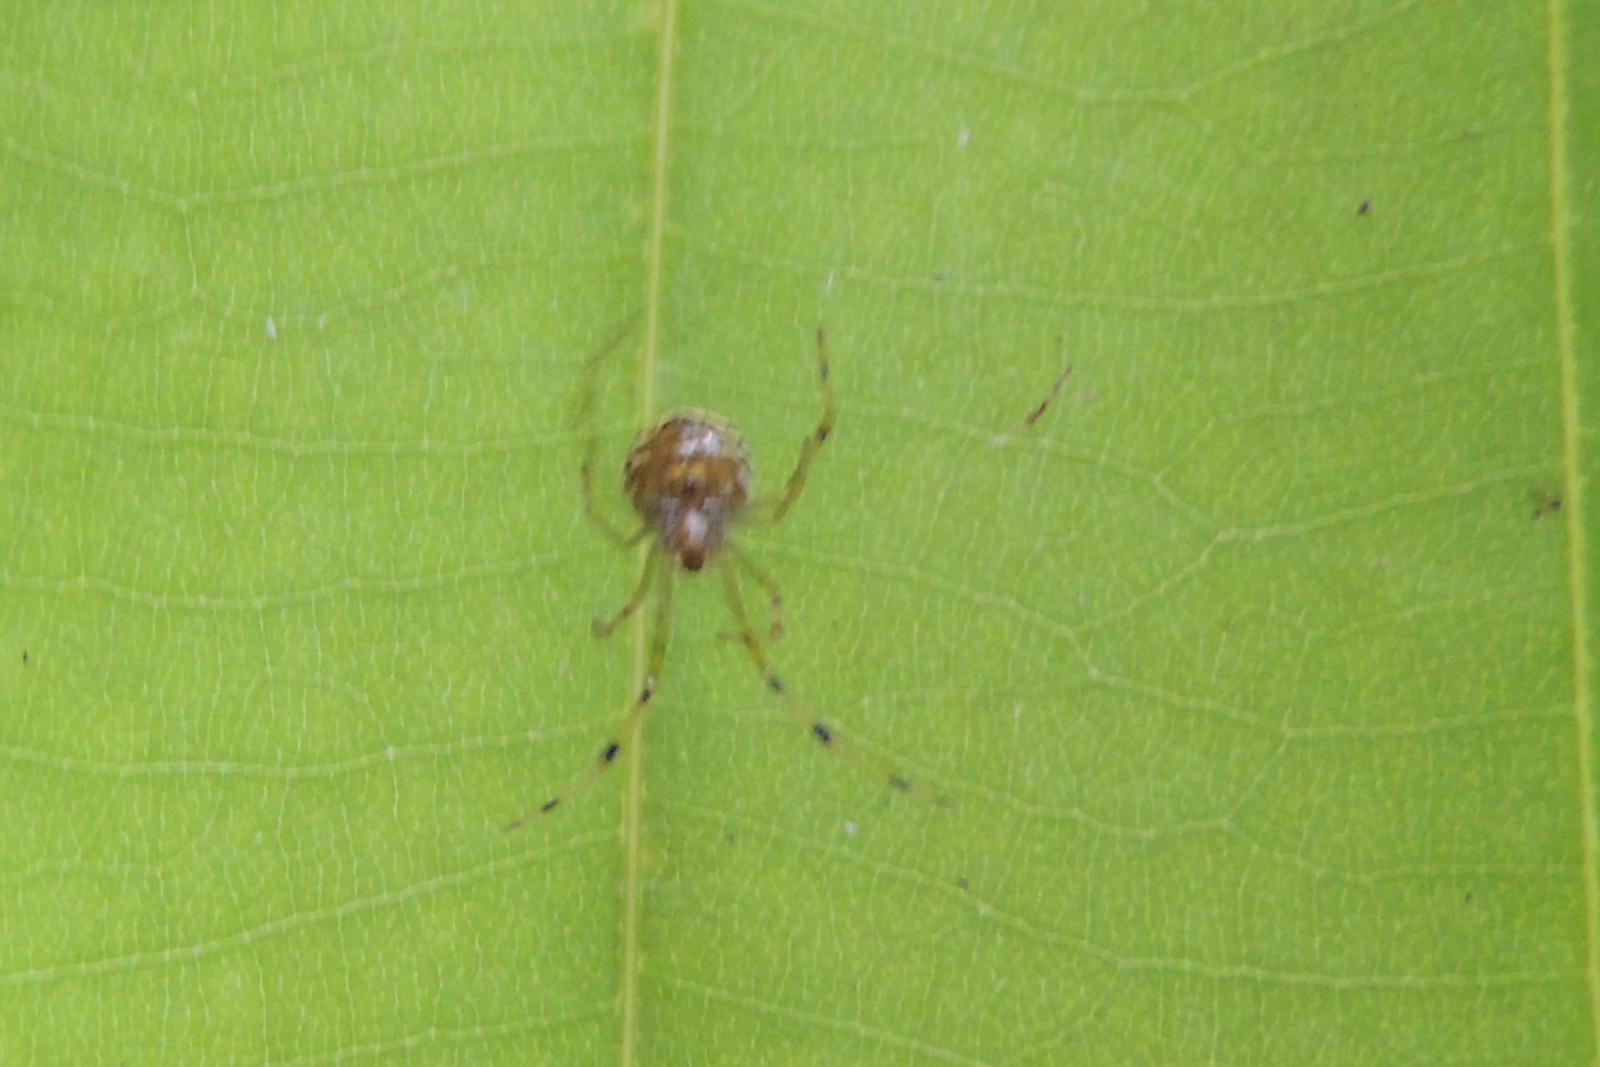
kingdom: Animalia
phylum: Arthropoda
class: Arachnida
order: Araneae
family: Theridiidae
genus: Theridion
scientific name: Theridion zonulatum
